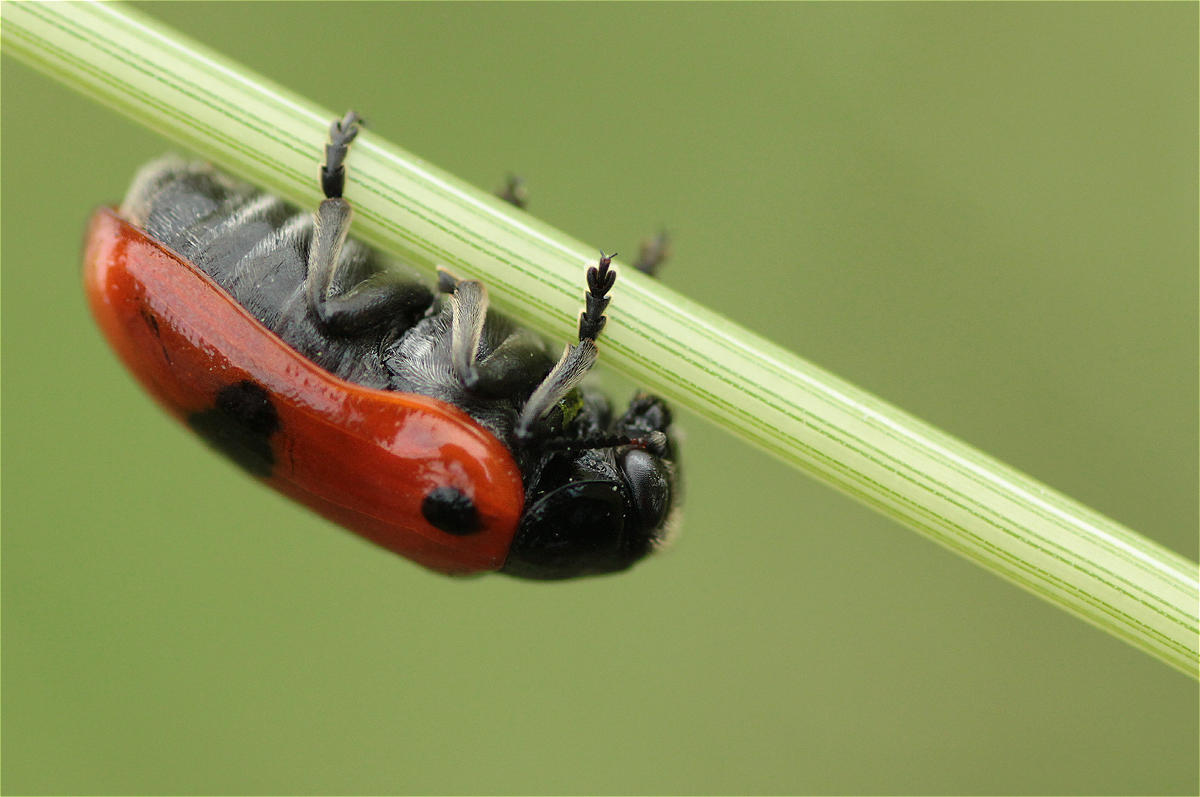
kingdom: Animalia
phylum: Arthropoda
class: Insecta
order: Coleoptera
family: Chrysomelidae
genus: Clytra
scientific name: Clytra laeviuscula
